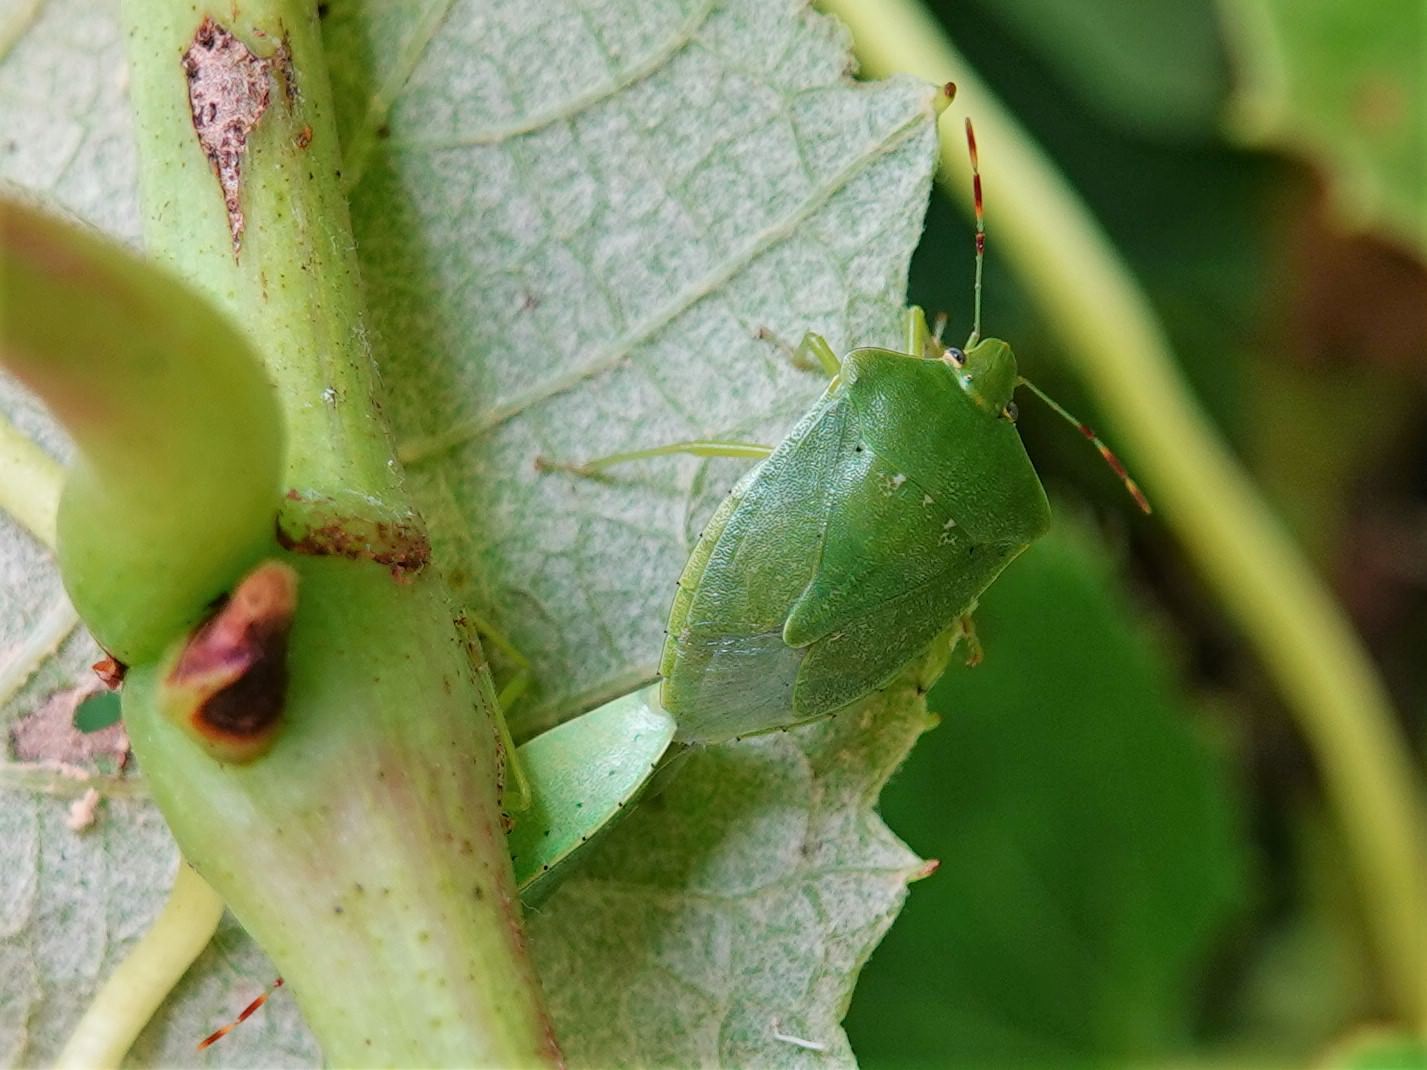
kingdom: Animalia
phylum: Arthropoda
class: Insecta
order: Hemiptera
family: Pentatomidae
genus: Nezara
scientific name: Nezara viridula
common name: Southern green stink bug
